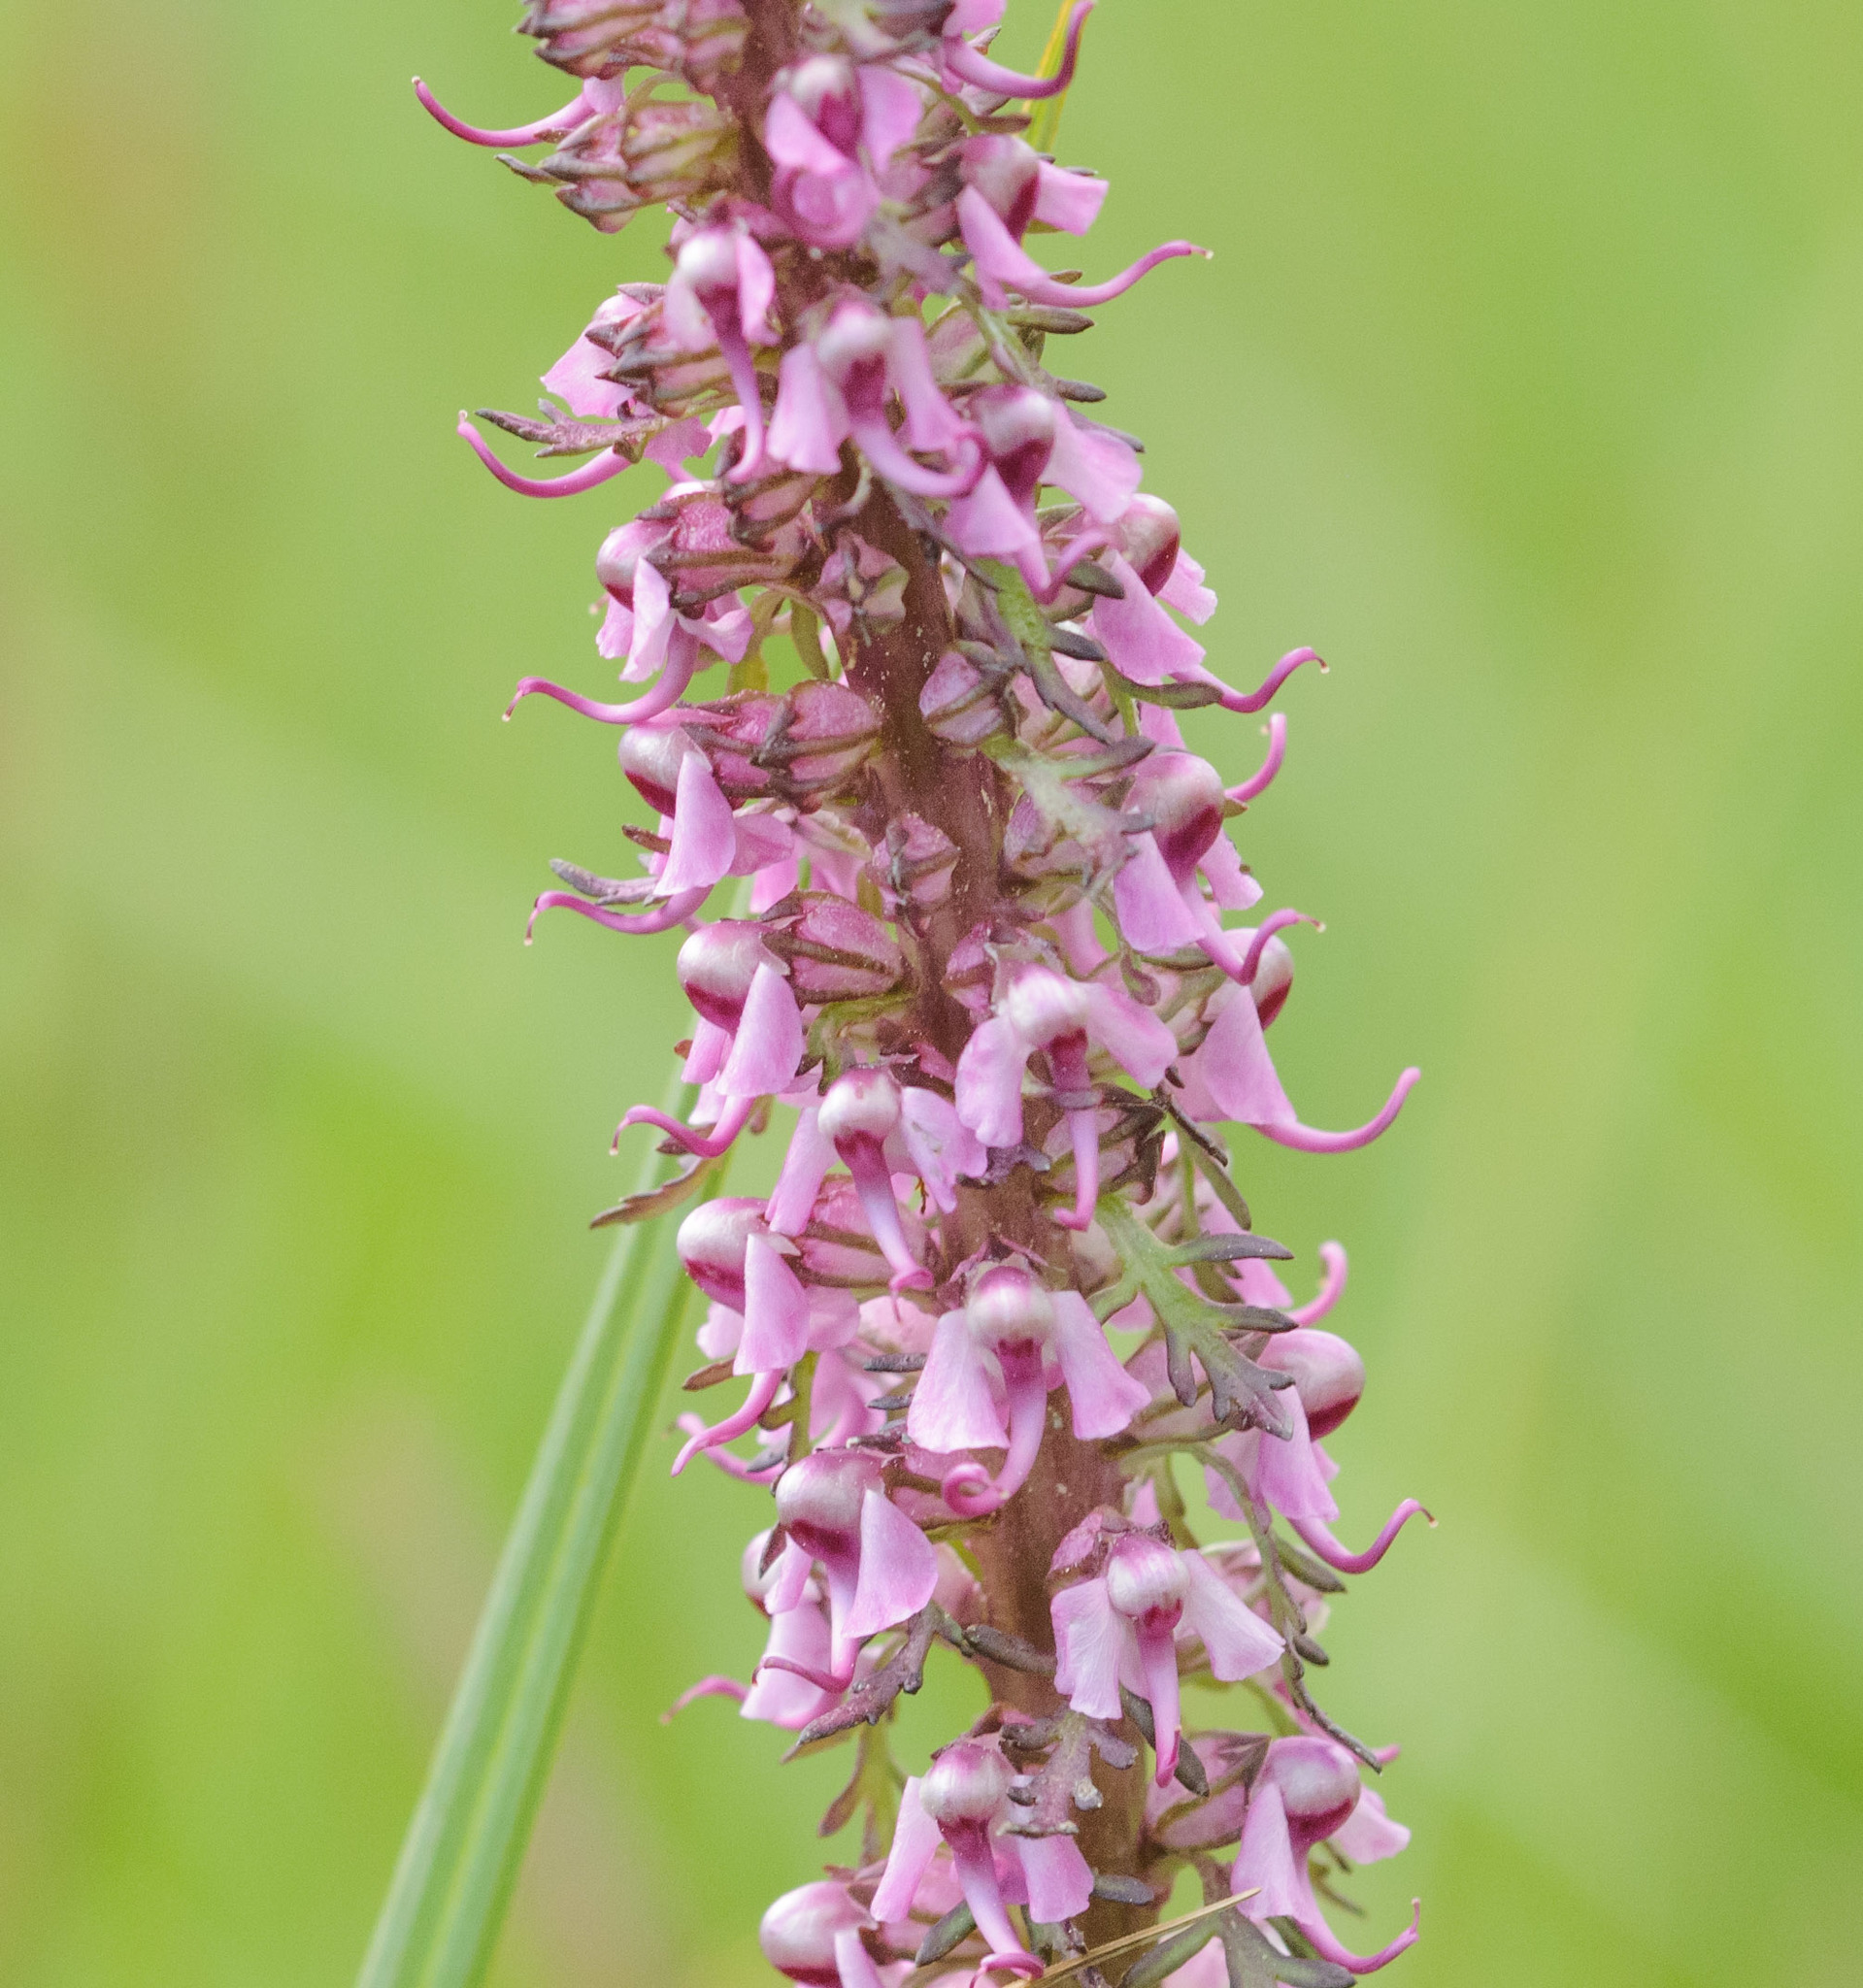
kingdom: Plantae
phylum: Tracheophyta
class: Magnoliopsida
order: Lamiales
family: Orobanchaceae
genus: Pedicularis
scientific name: Pedicularis groenlandica
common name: Elephant's-head
